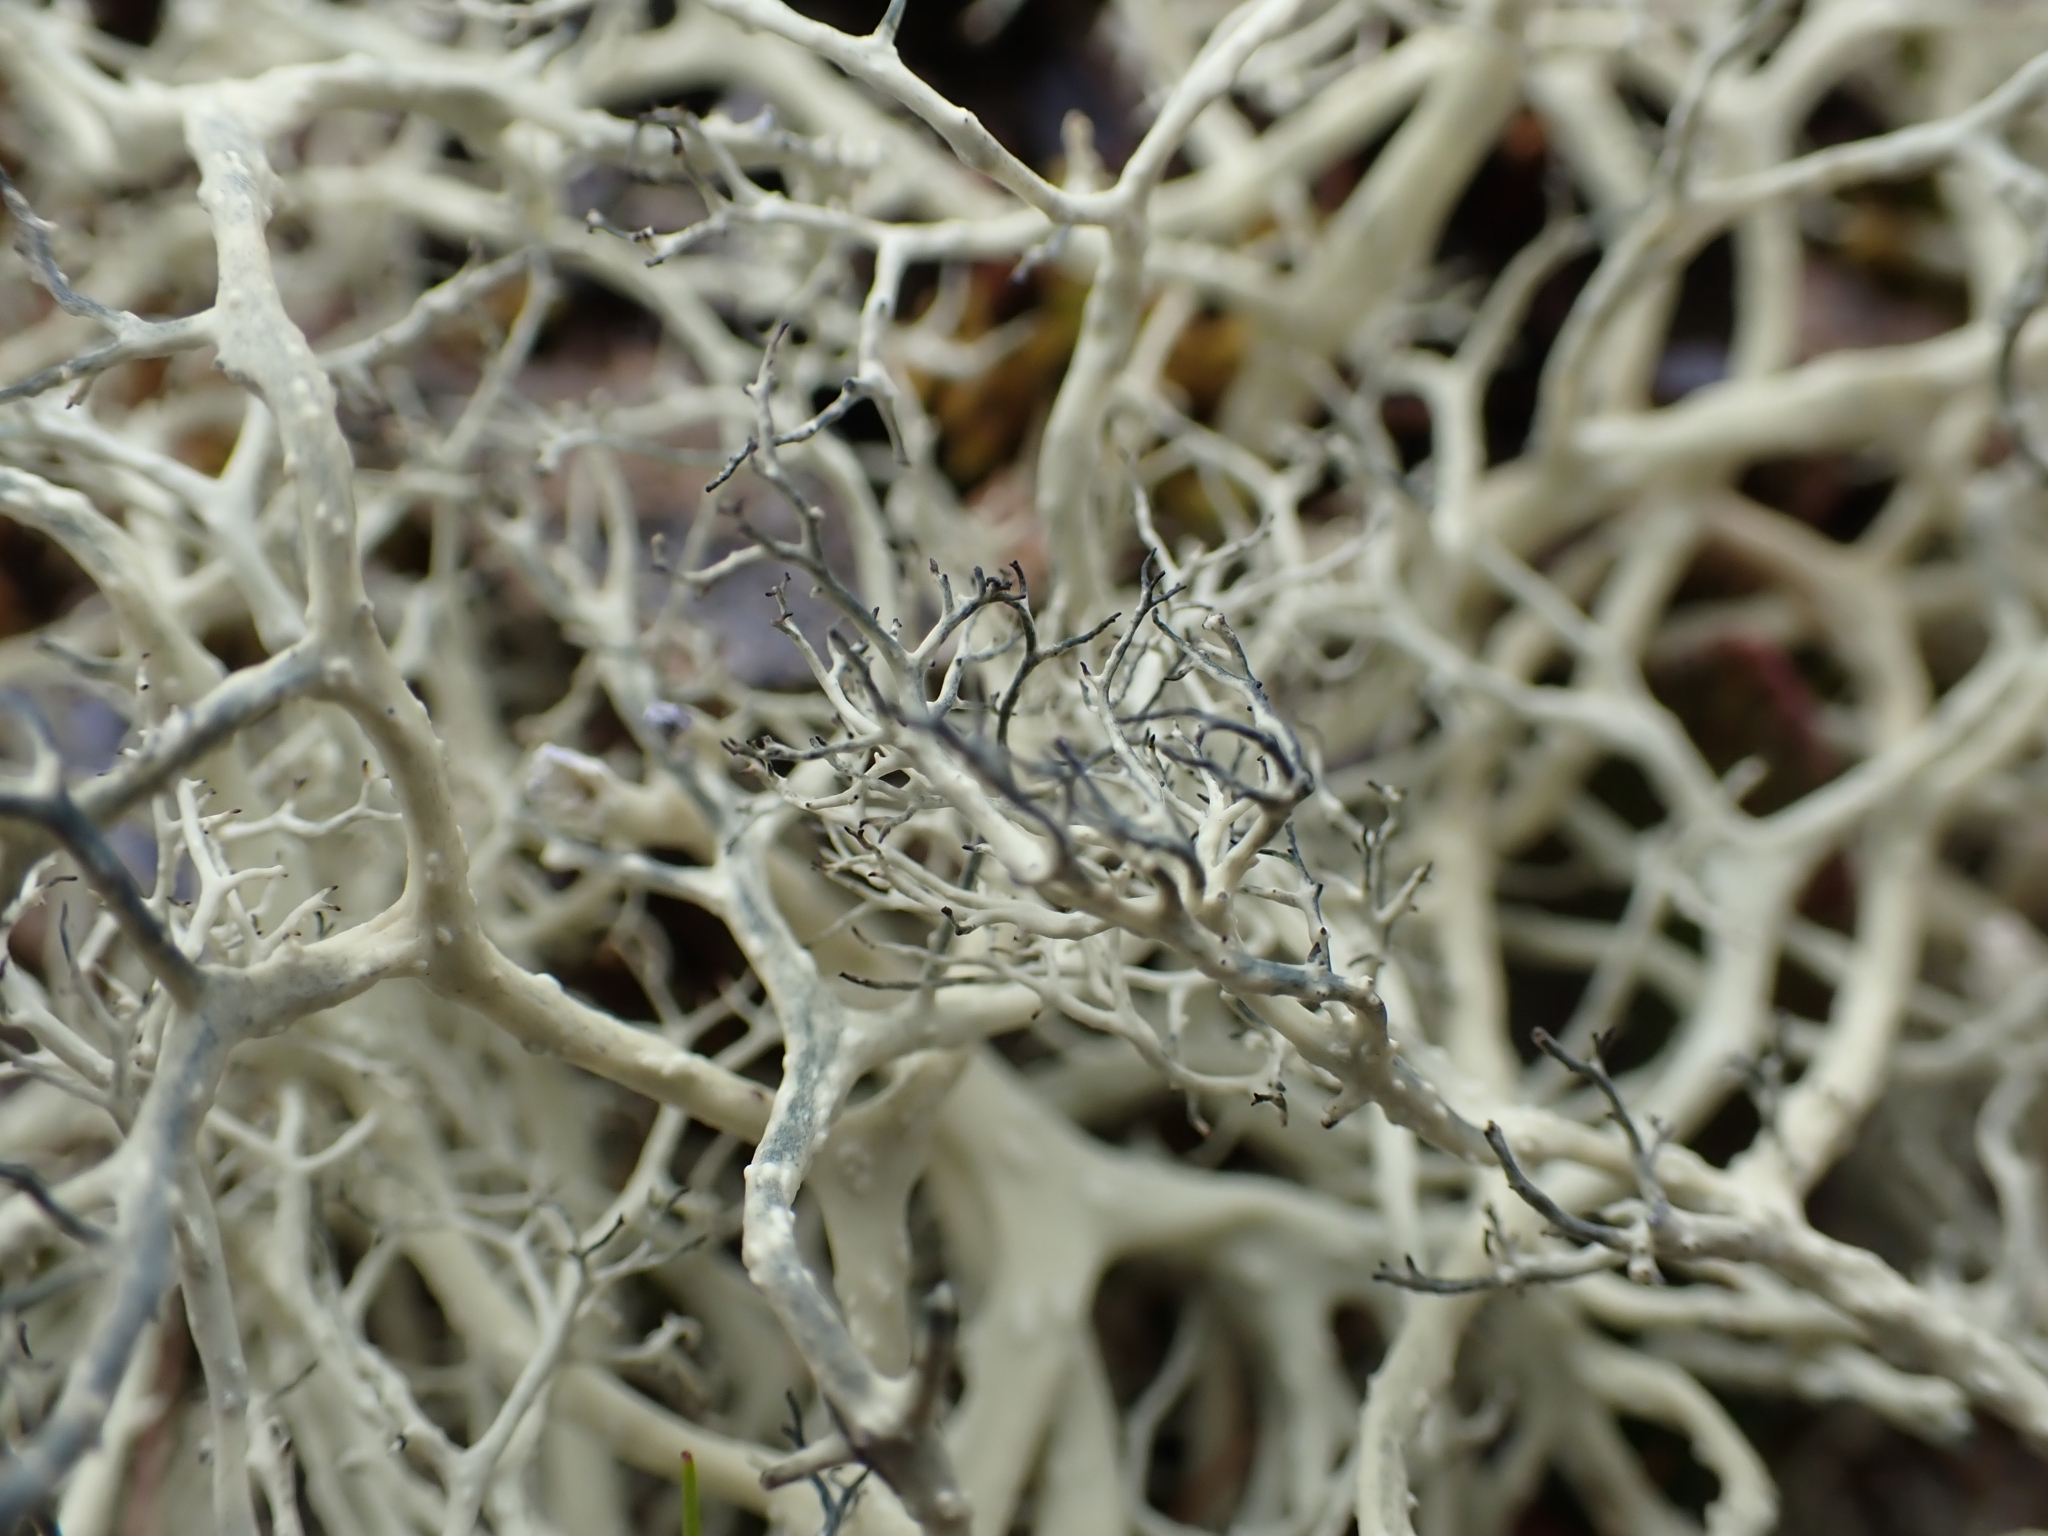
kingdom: Fungi
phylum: Ascomycota
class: Lecanoromycetes
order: Lecanorales
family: Parmeliaceae
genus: Alectoria
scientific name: Alectoria ochroleuca
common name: Alpine sulphur-tresses
